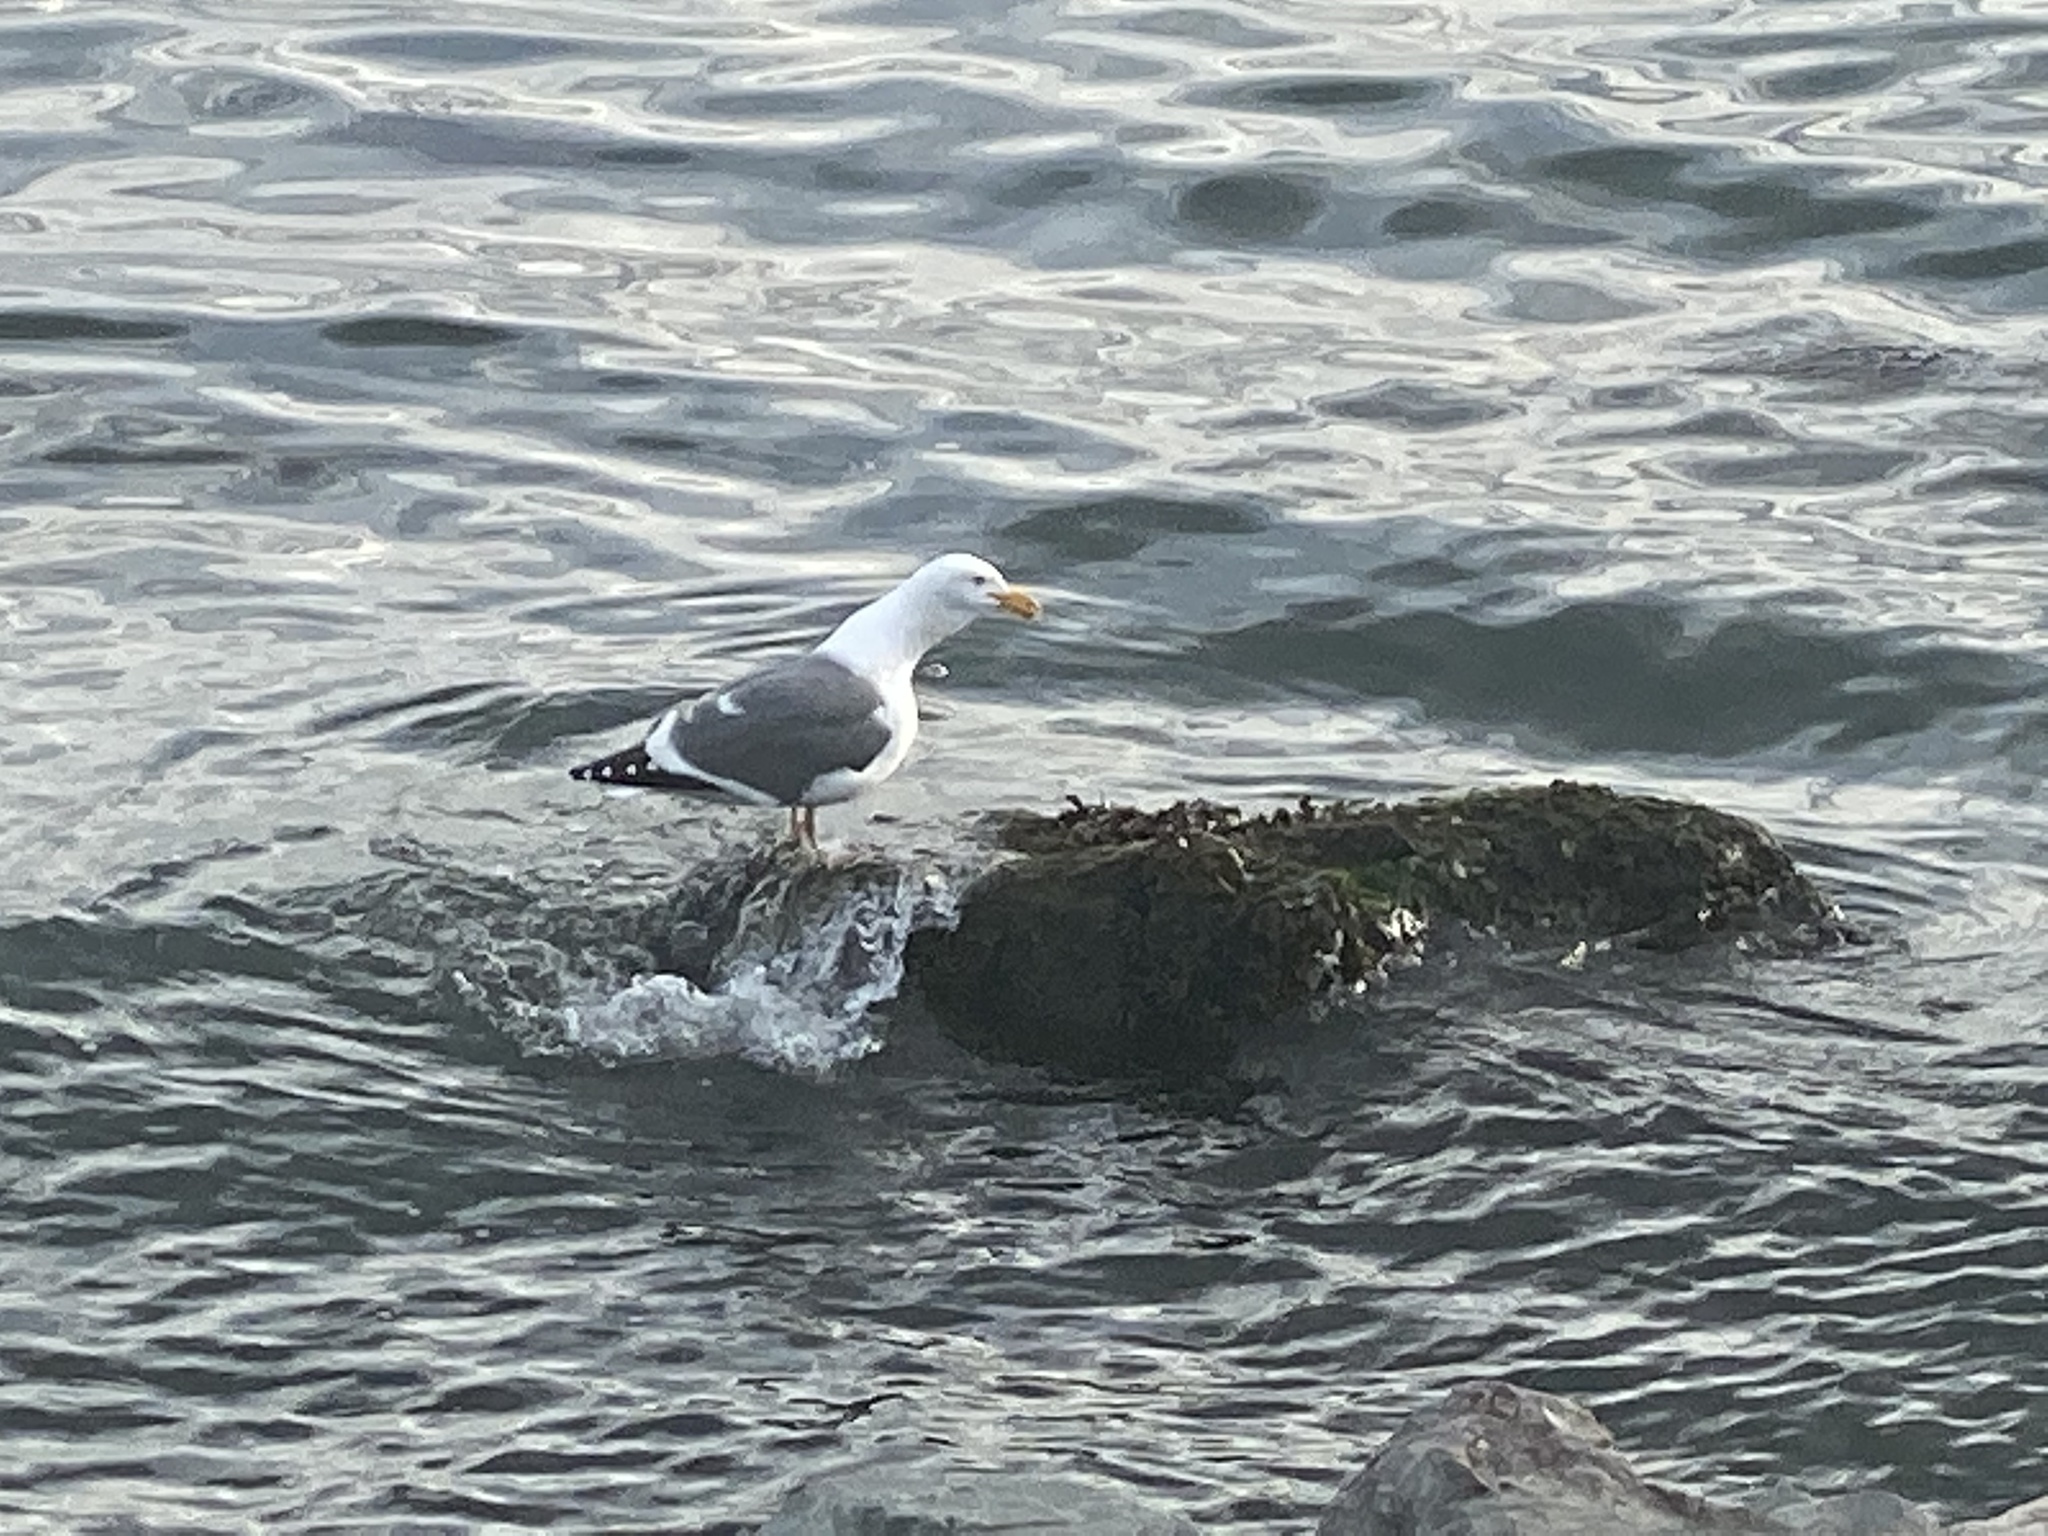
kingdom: Animalia
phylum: Chordata
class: Aves
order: Charadriiformes
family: Laridae
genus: Larus
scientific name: Larus occidentalis
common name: Western gull
